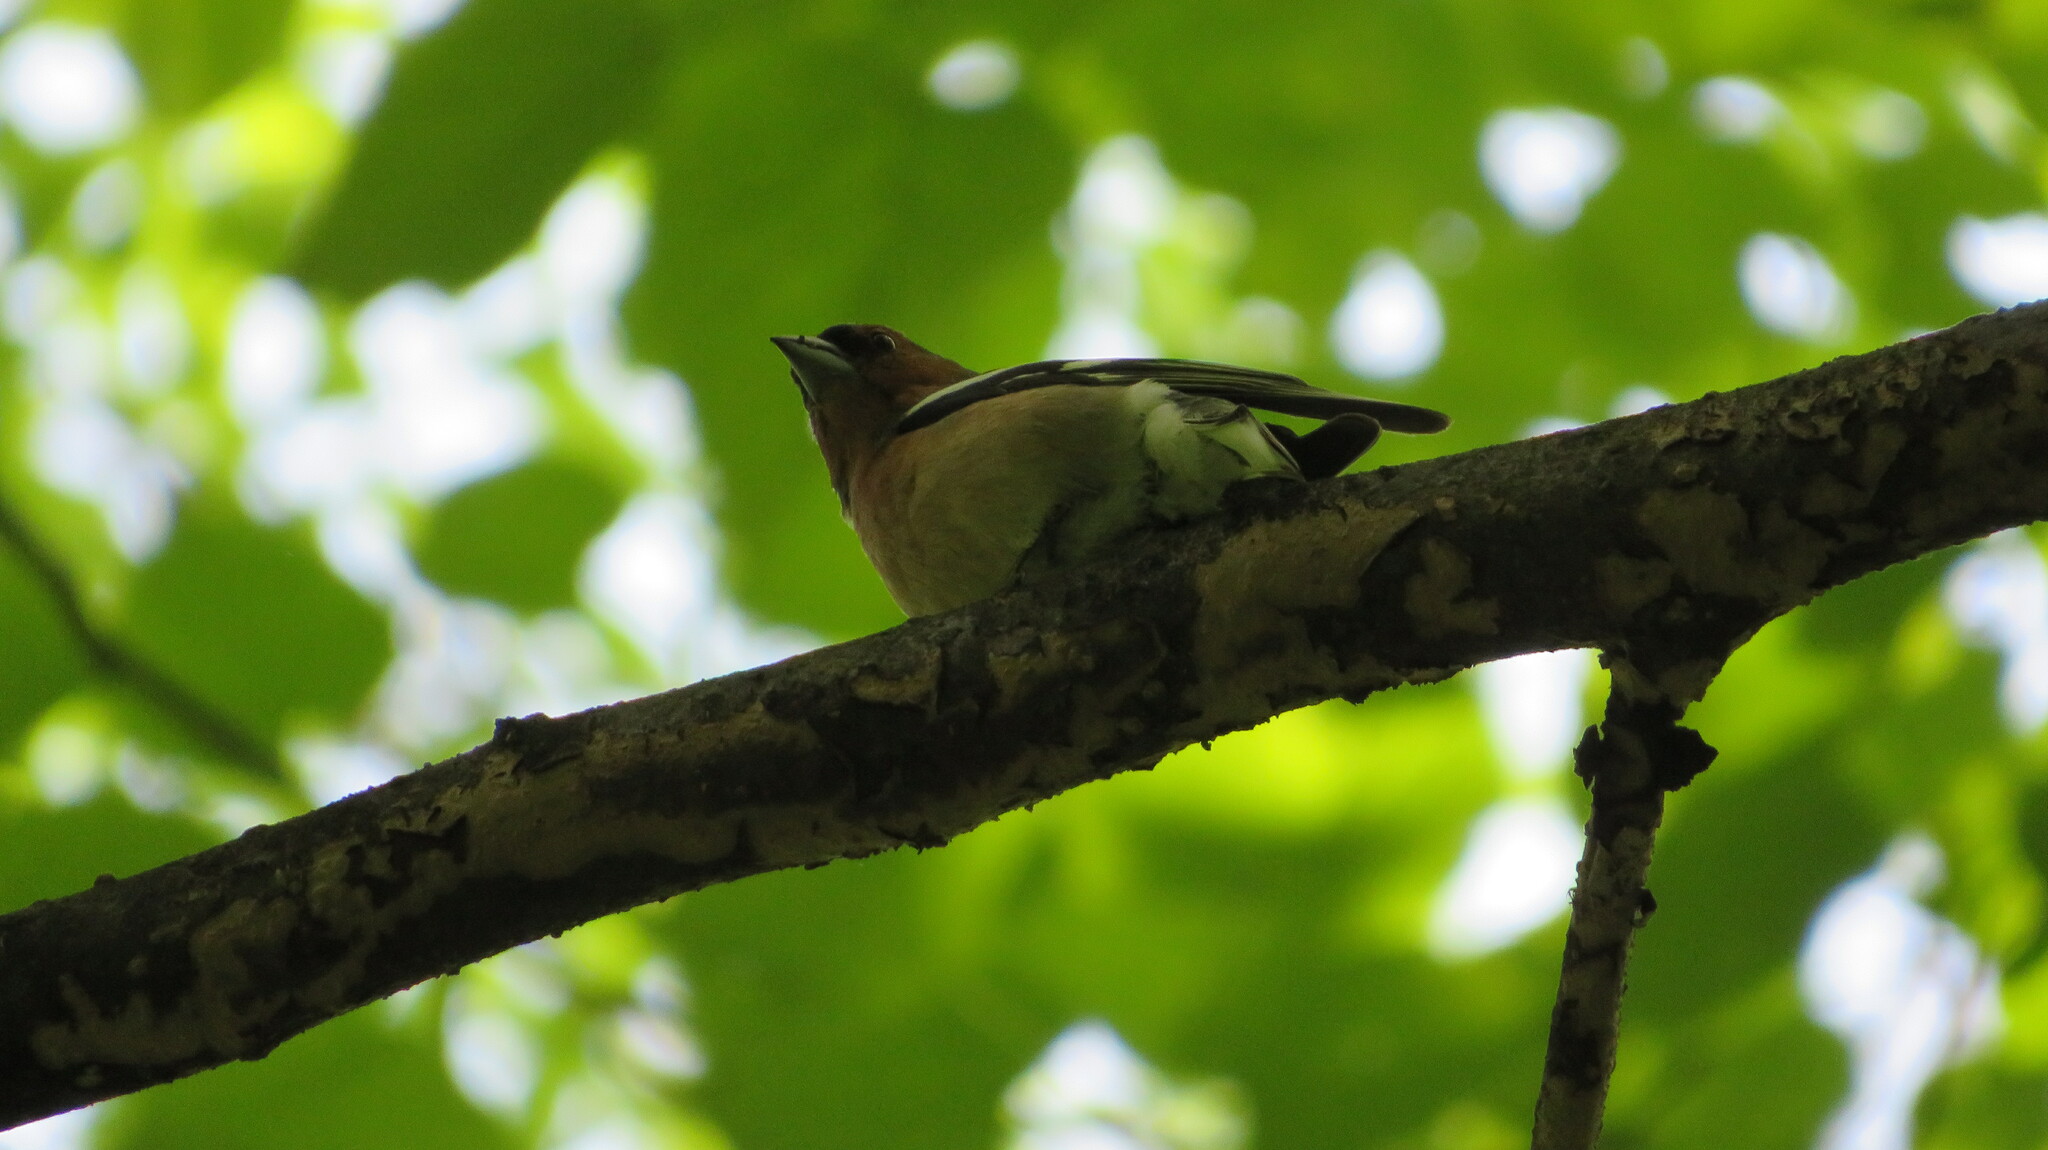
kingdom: Animalia
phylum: Chordata
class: Aves
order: Passeriformes
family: Fringillidae
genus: Fringilla
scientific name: Fringilla coelebs
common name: Common chaffinch
